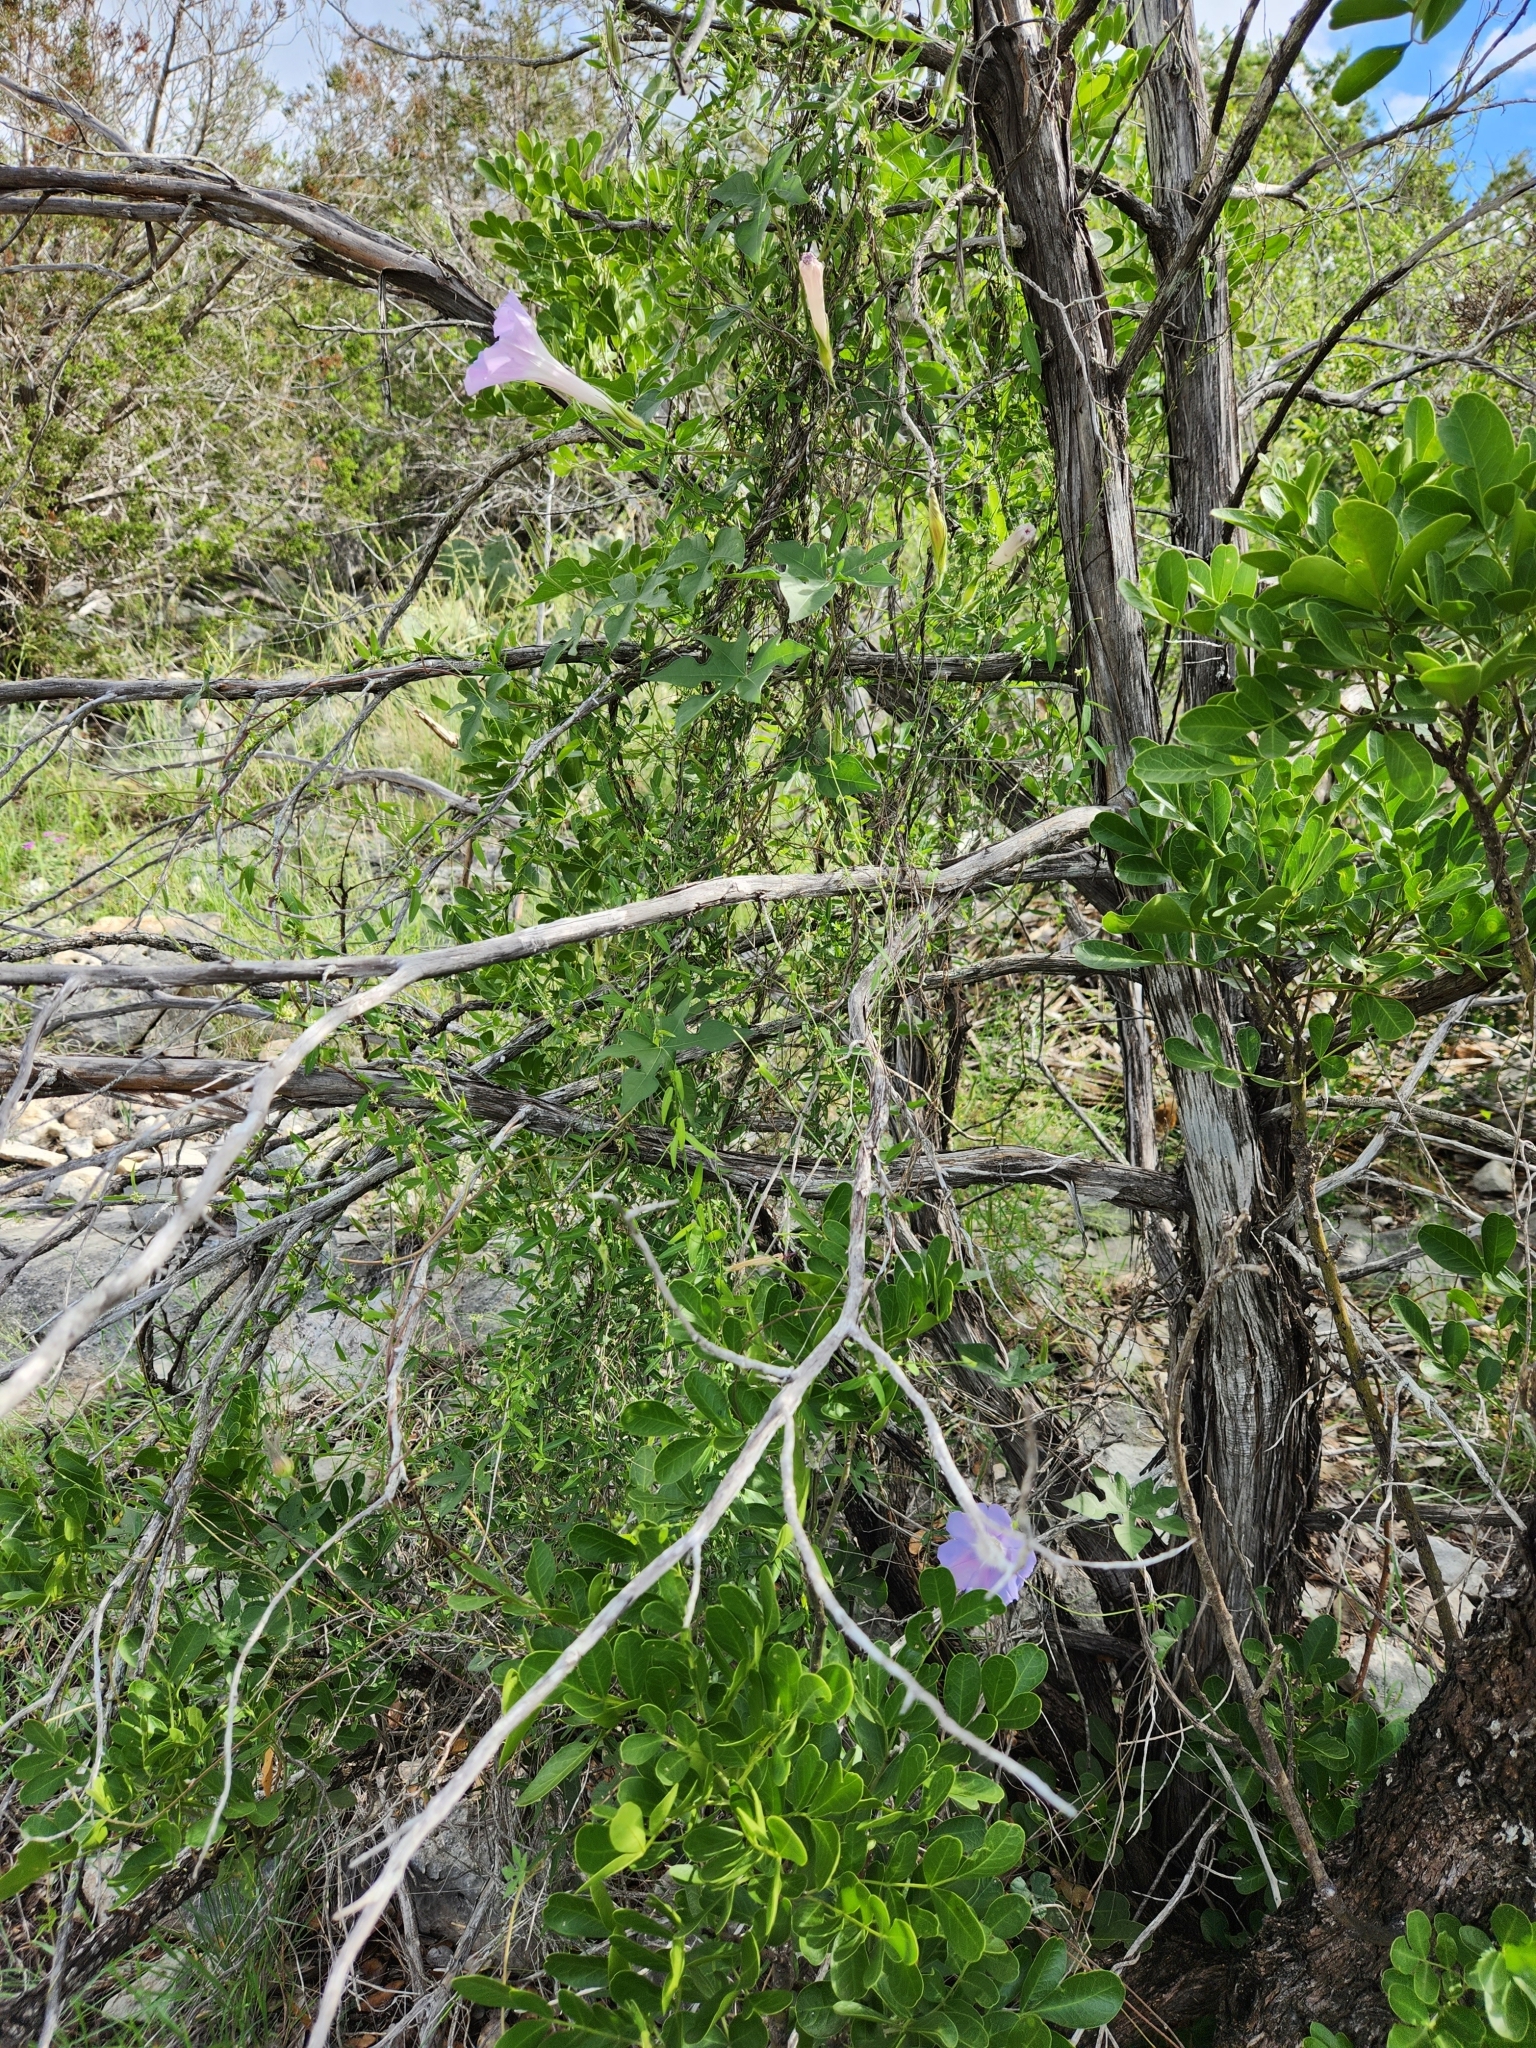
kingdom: Plantae
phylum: Tracheophyta
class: Magnoliopsida
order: Solanales
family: Convolvulaceae
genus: Ipomoea
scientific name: Ipomoea lindheimeri
